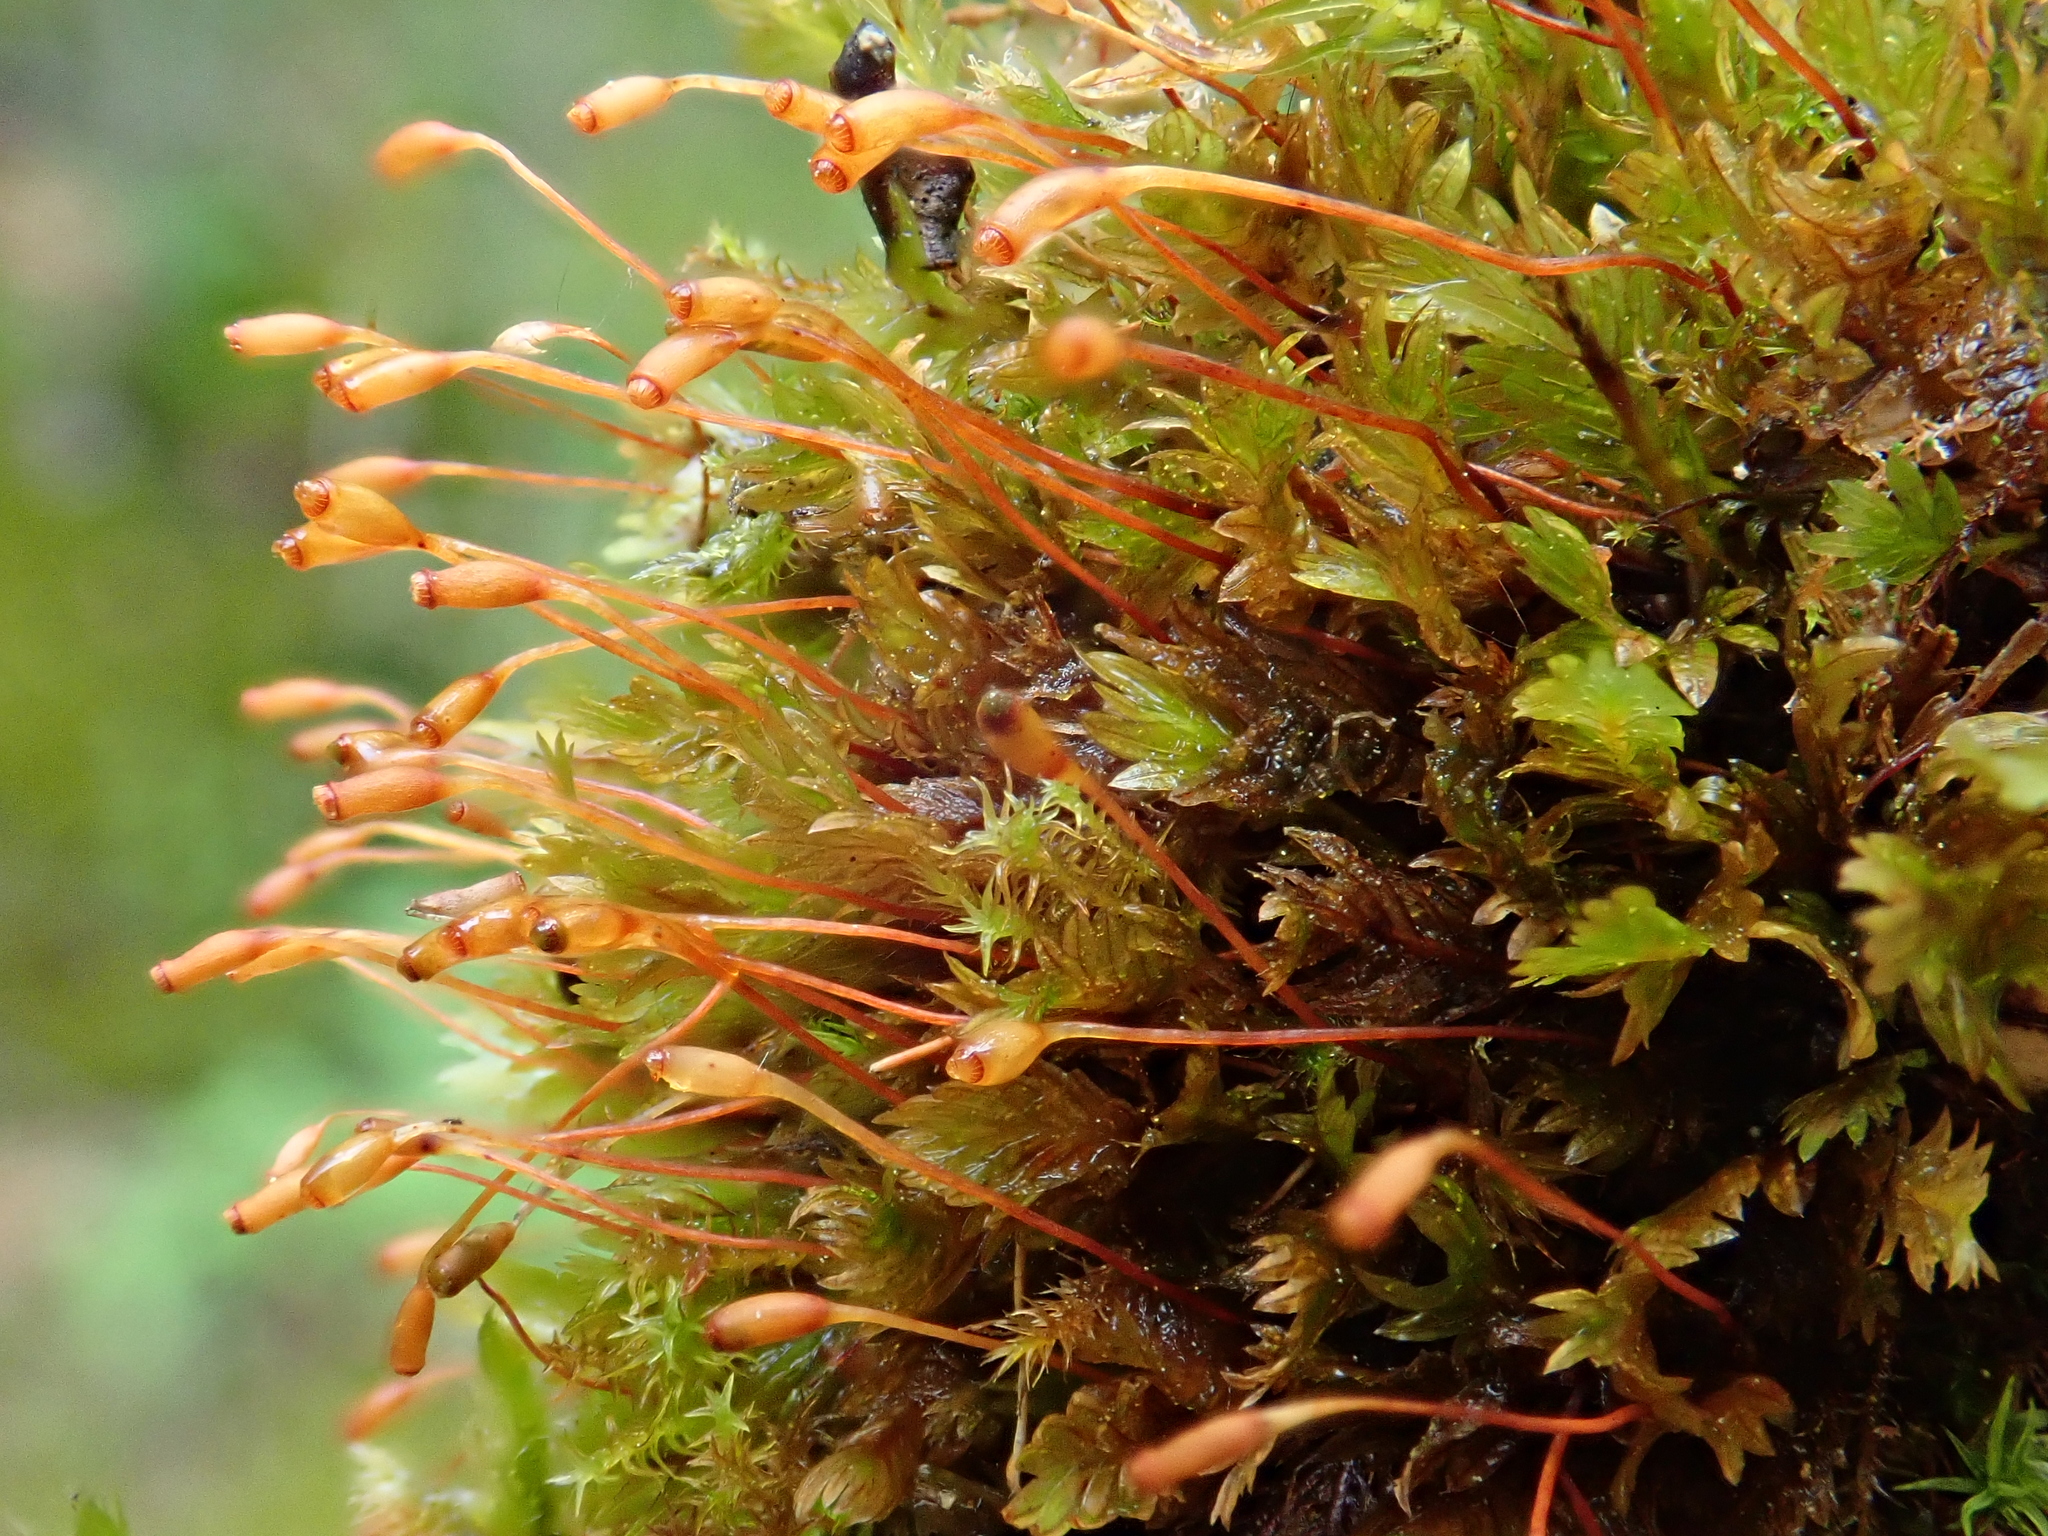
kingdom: Plantae
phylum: Bryophyta
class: Bryopsida
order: Dicranales
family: Fissidentaceae
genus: Fissidens
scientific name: Fissidens dubius
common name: Rock pocket moss
